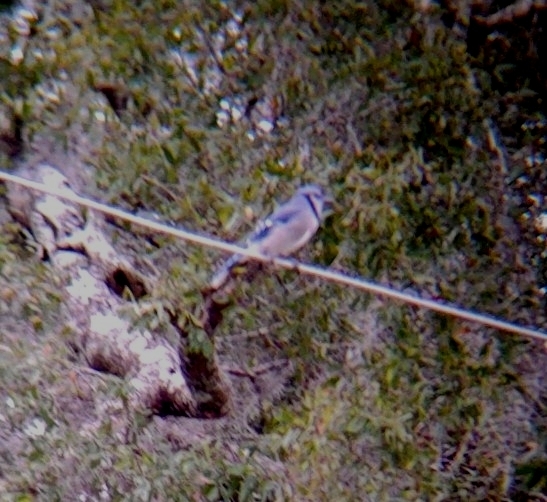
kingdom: Animalia
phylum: Chordata
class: Aves
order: Passeriformes
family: Corvidae
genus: Cyanocitta
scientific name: Cyanocitta cristata
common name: Blue jay
